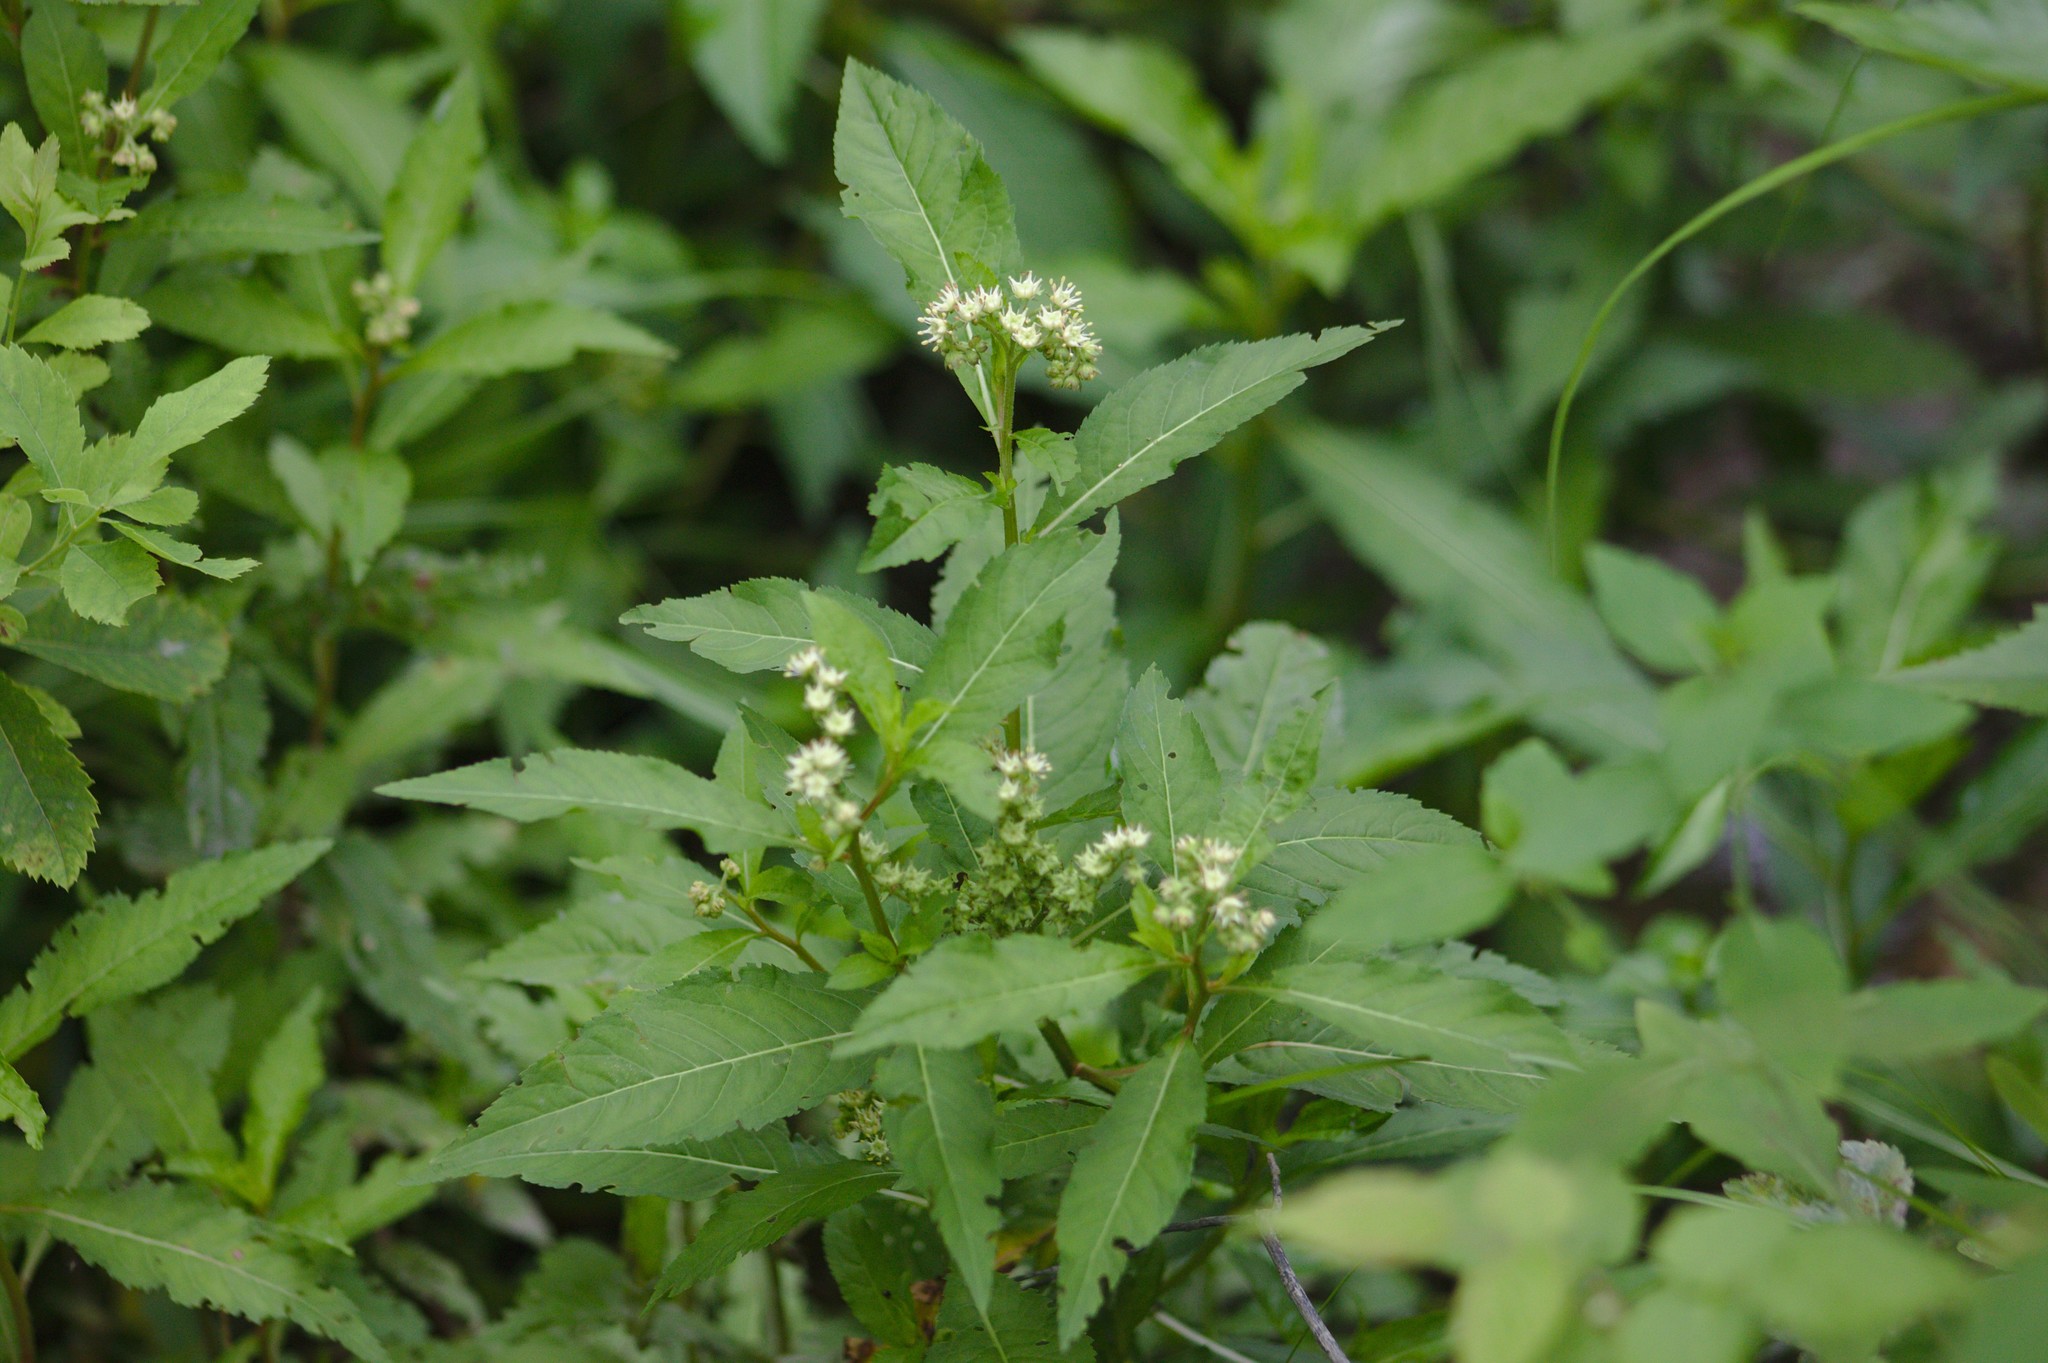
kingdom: Plantae
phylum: Tracheophyta
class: Magnoliopsida
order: Saxifragales
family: Penthoraceae
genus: Penthorum
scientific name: Penthorum sedoides
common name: Ditch stonecrop
